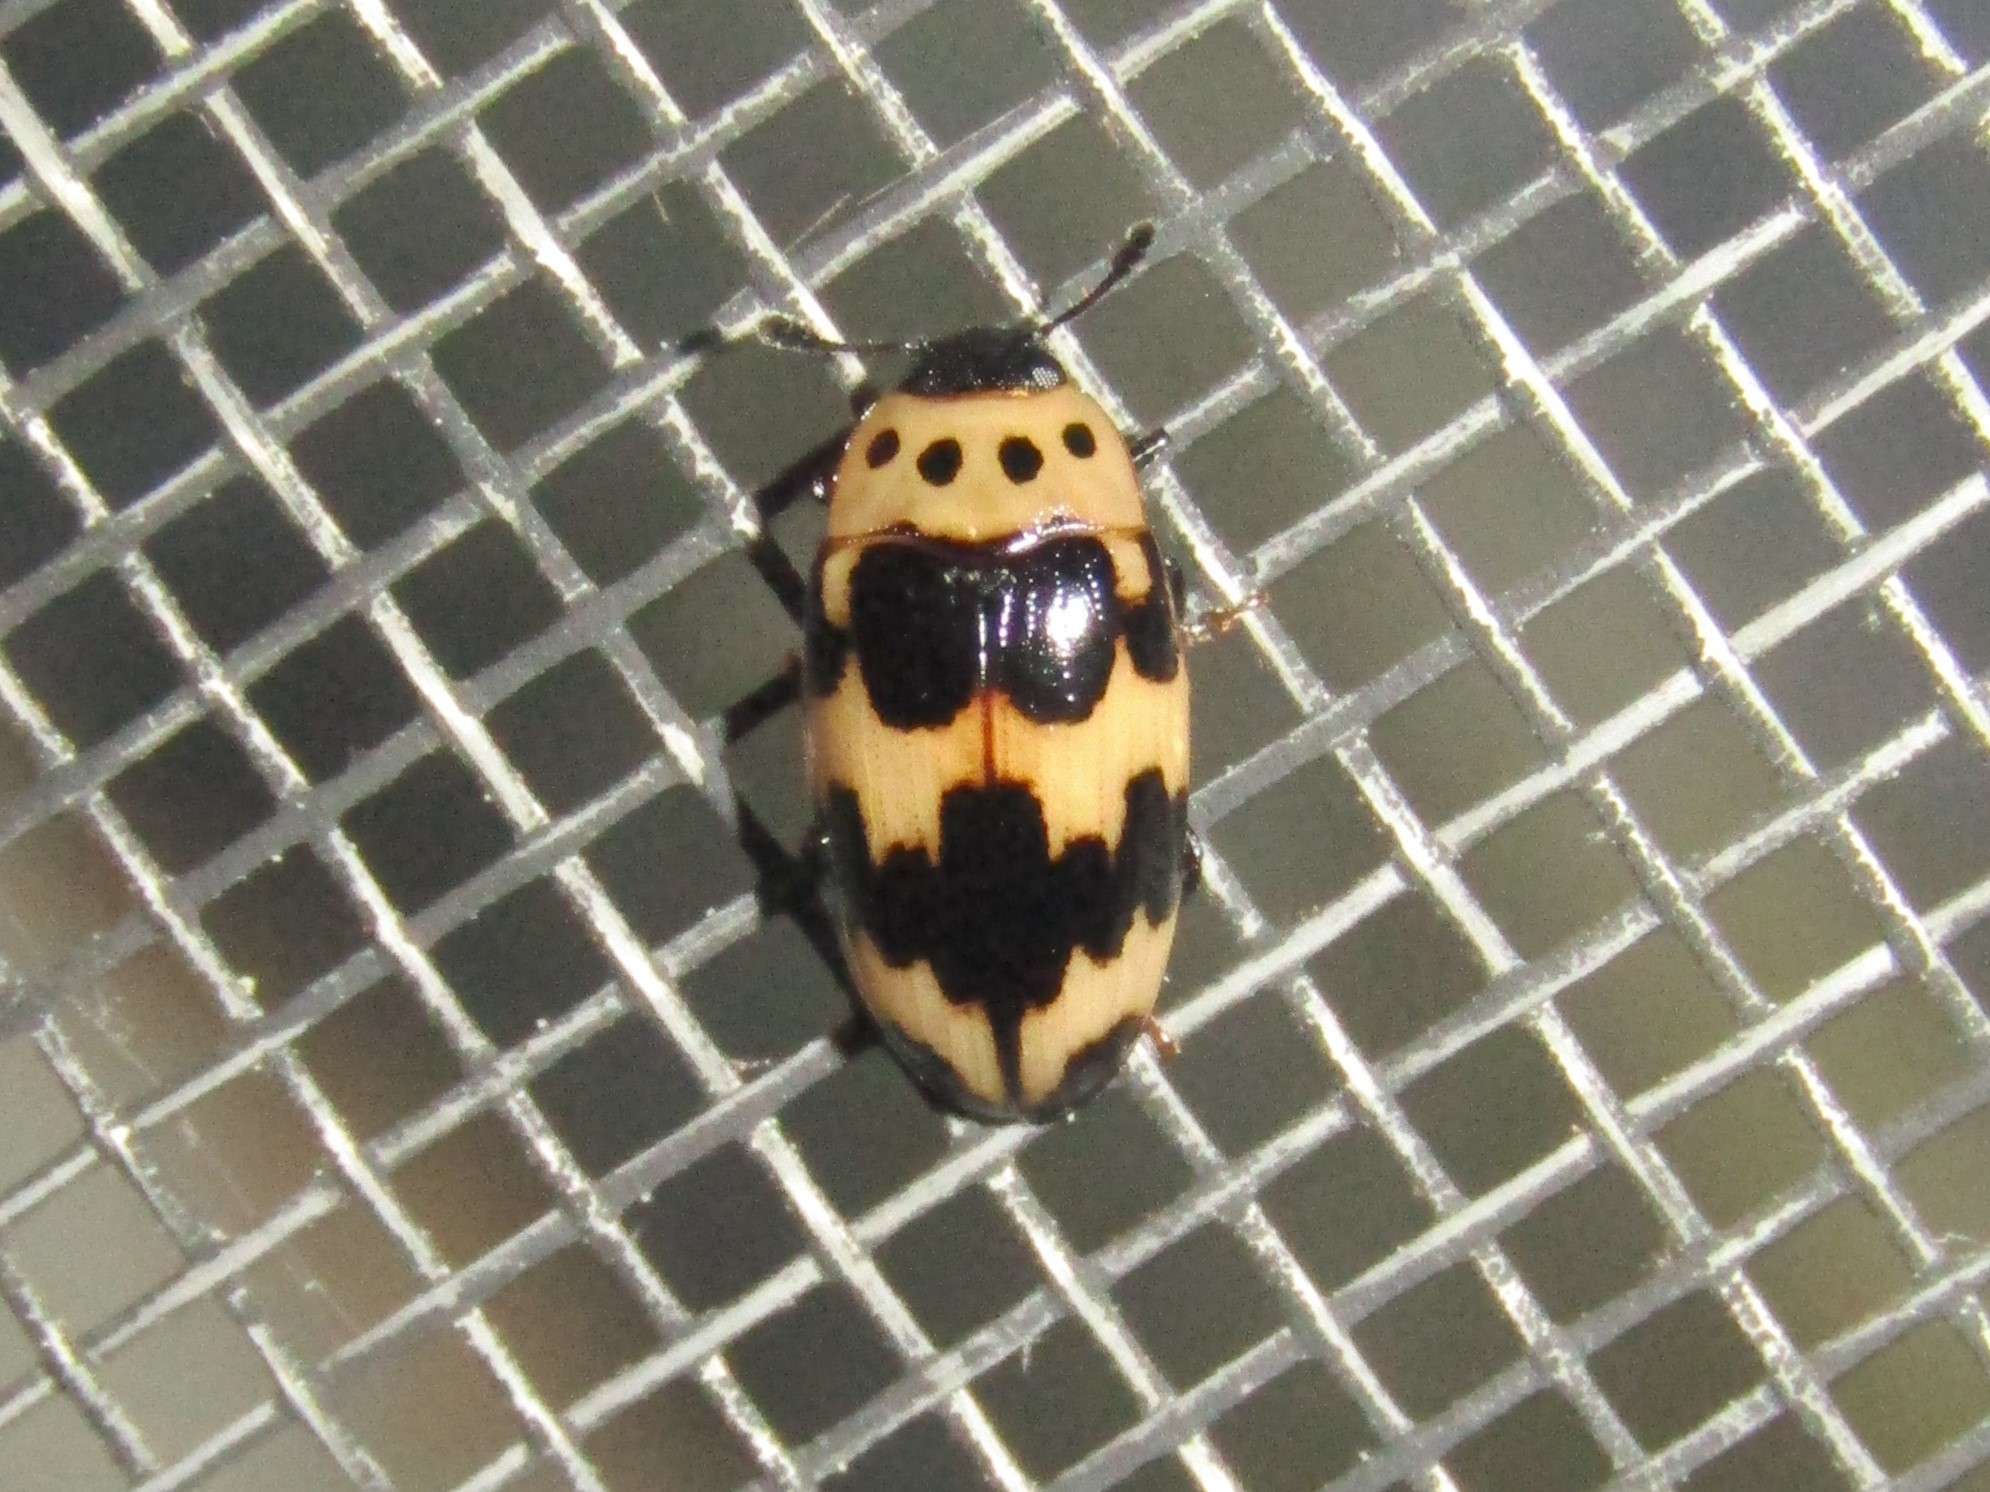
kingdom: Animalia
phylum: Arthropoda
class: Insecta
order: Coleoptera
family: Erotylidae
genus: Ischyrus
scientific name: Ischyrus quadripunctatus
